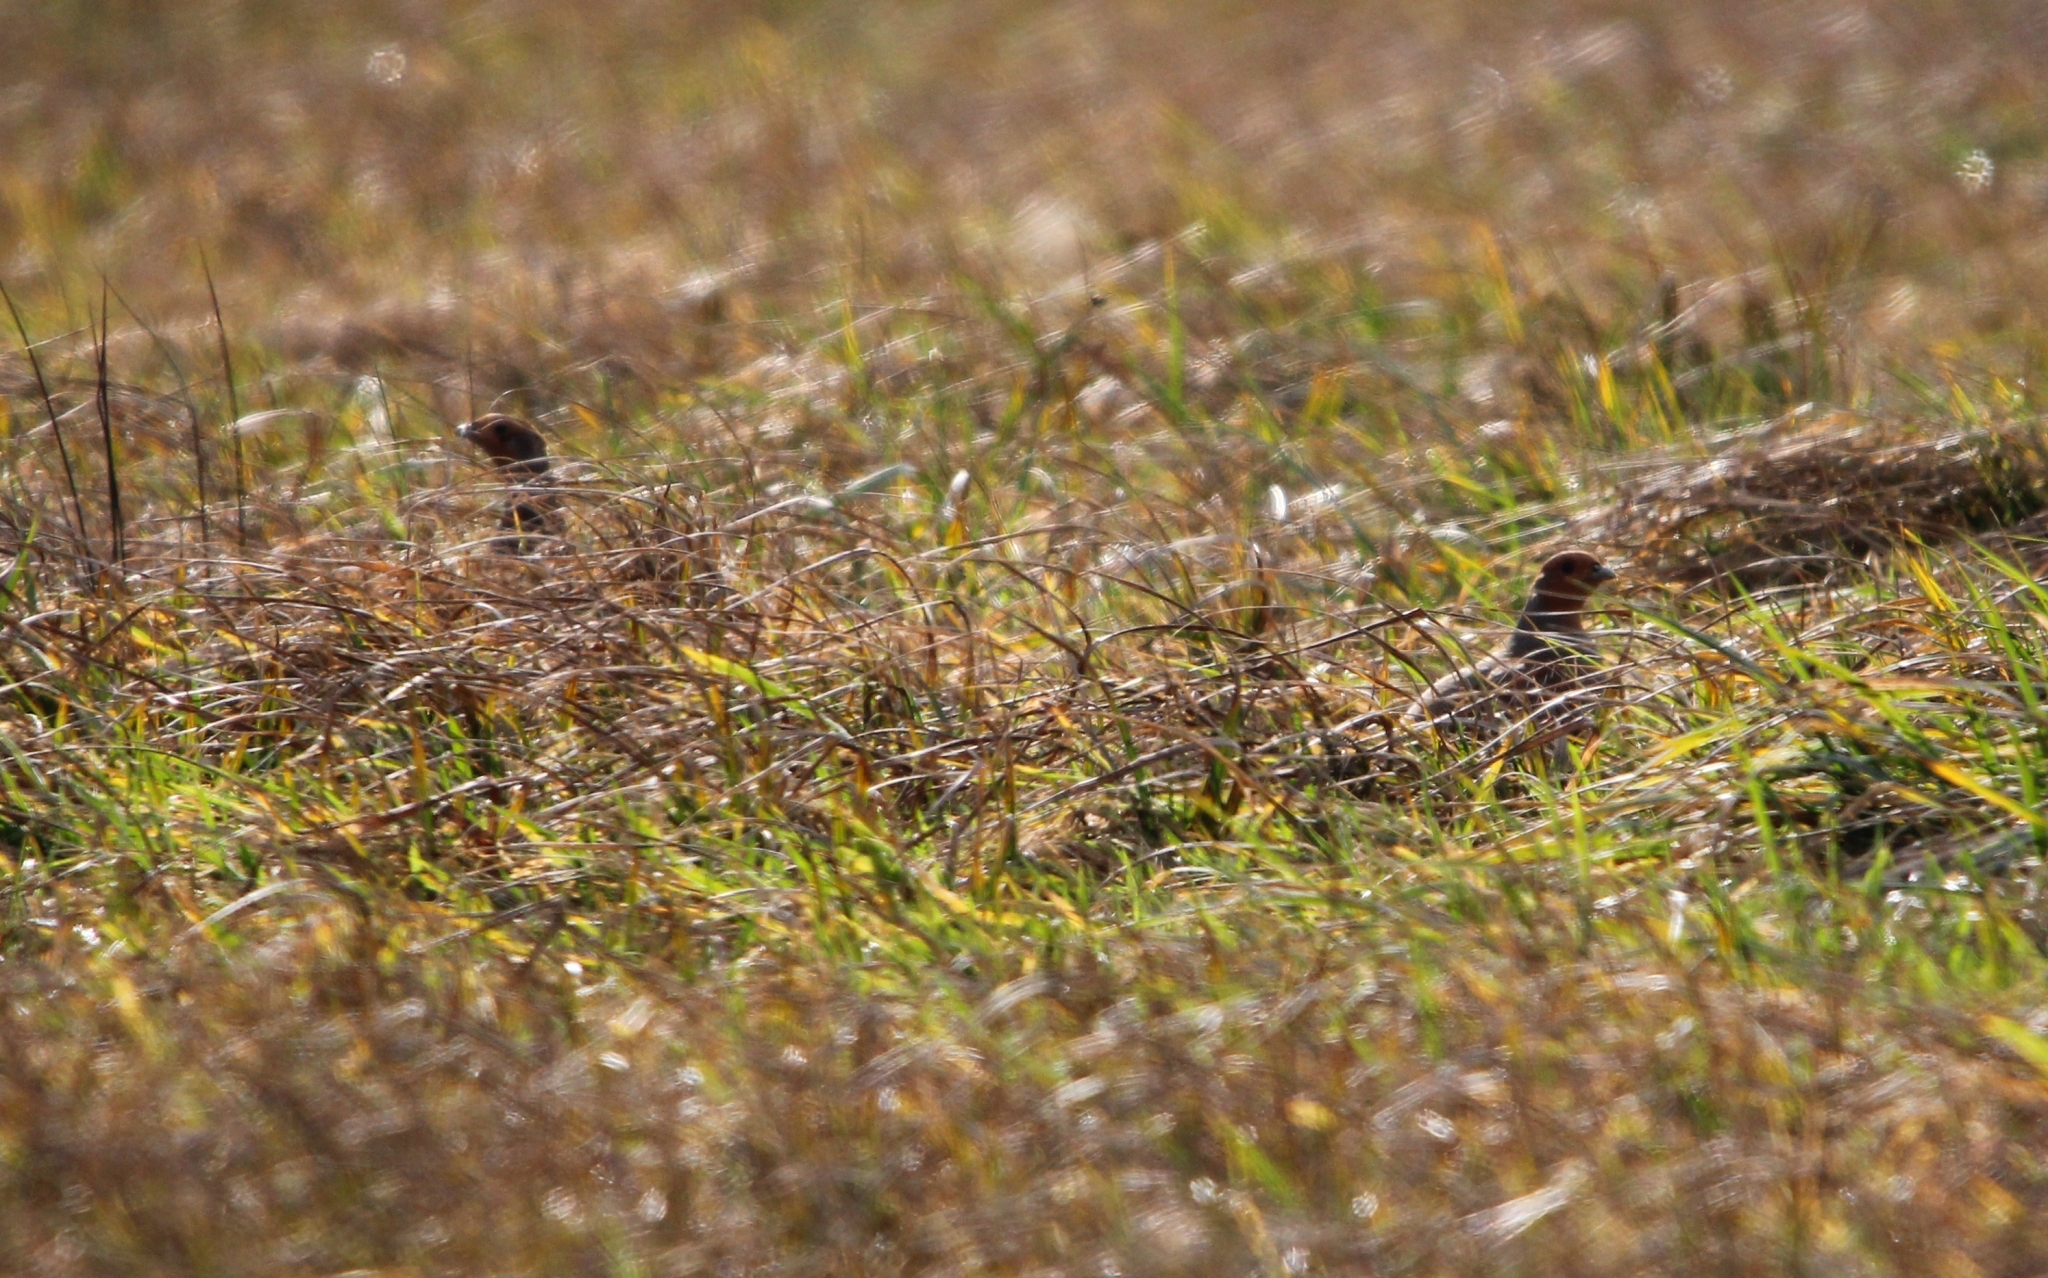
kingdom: Animalia
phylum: Chordata
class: Aves
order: Galliformes
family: Phasianidae
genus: Perdix
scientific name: Perdix perdix
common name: Grey partridge
